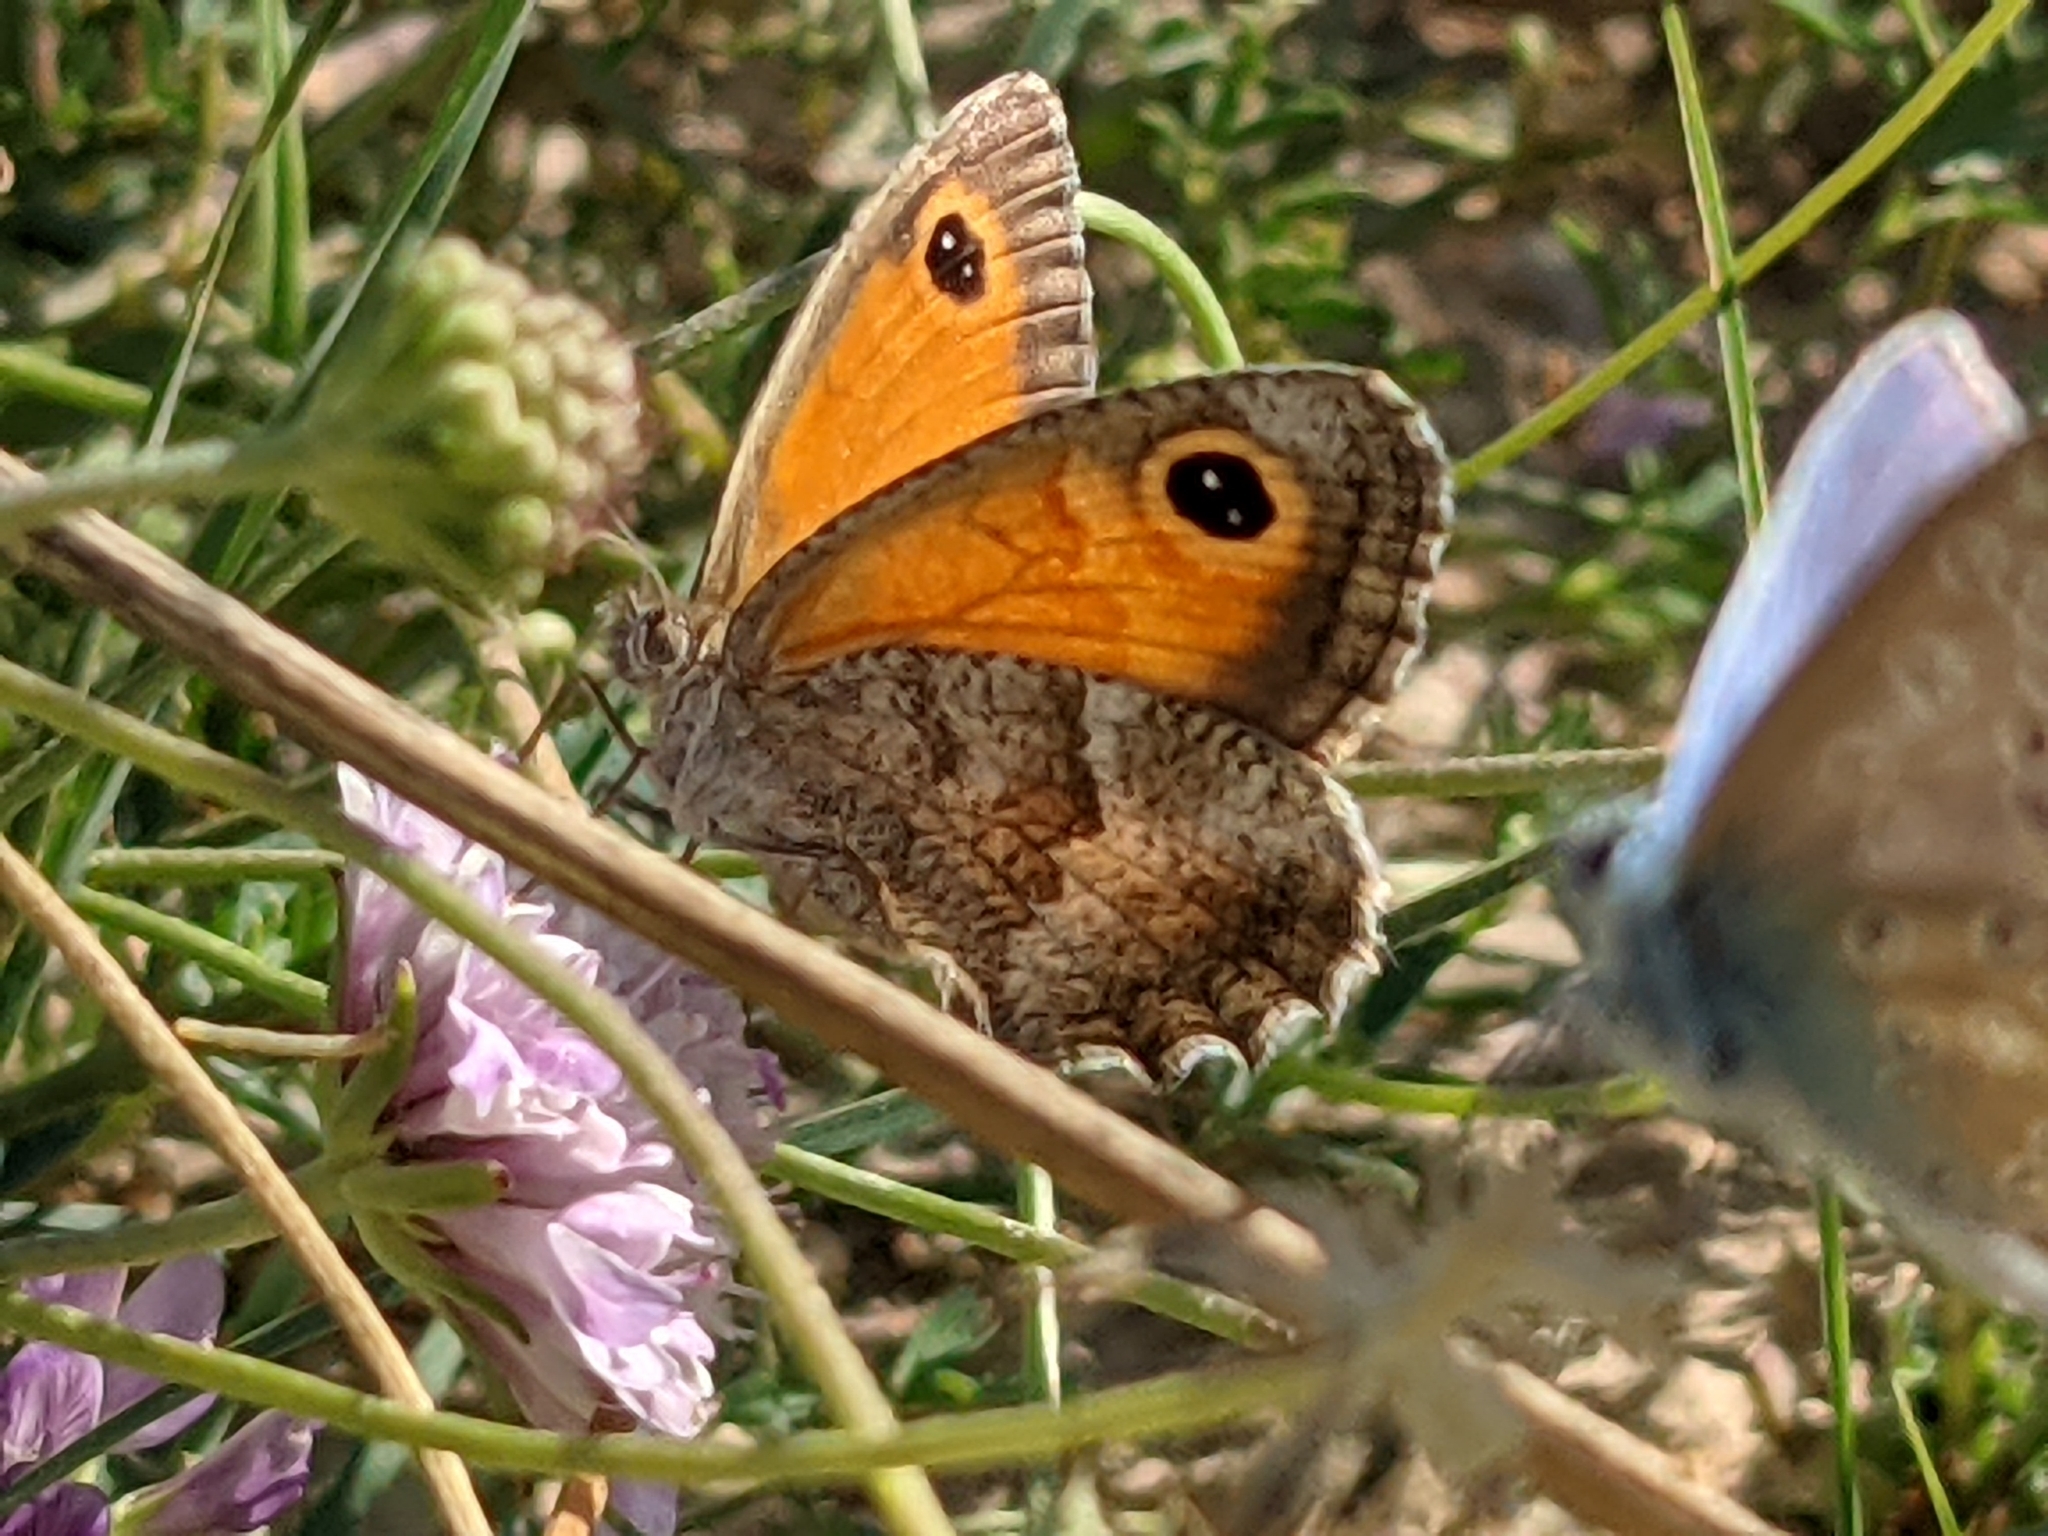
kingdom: Animalia
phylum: Arthropoda
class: Insecta
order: Lepidoptera
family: Nymphalidae
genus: Pyronia
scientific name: Pyronia cecilia
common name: Southern gatekeeper
